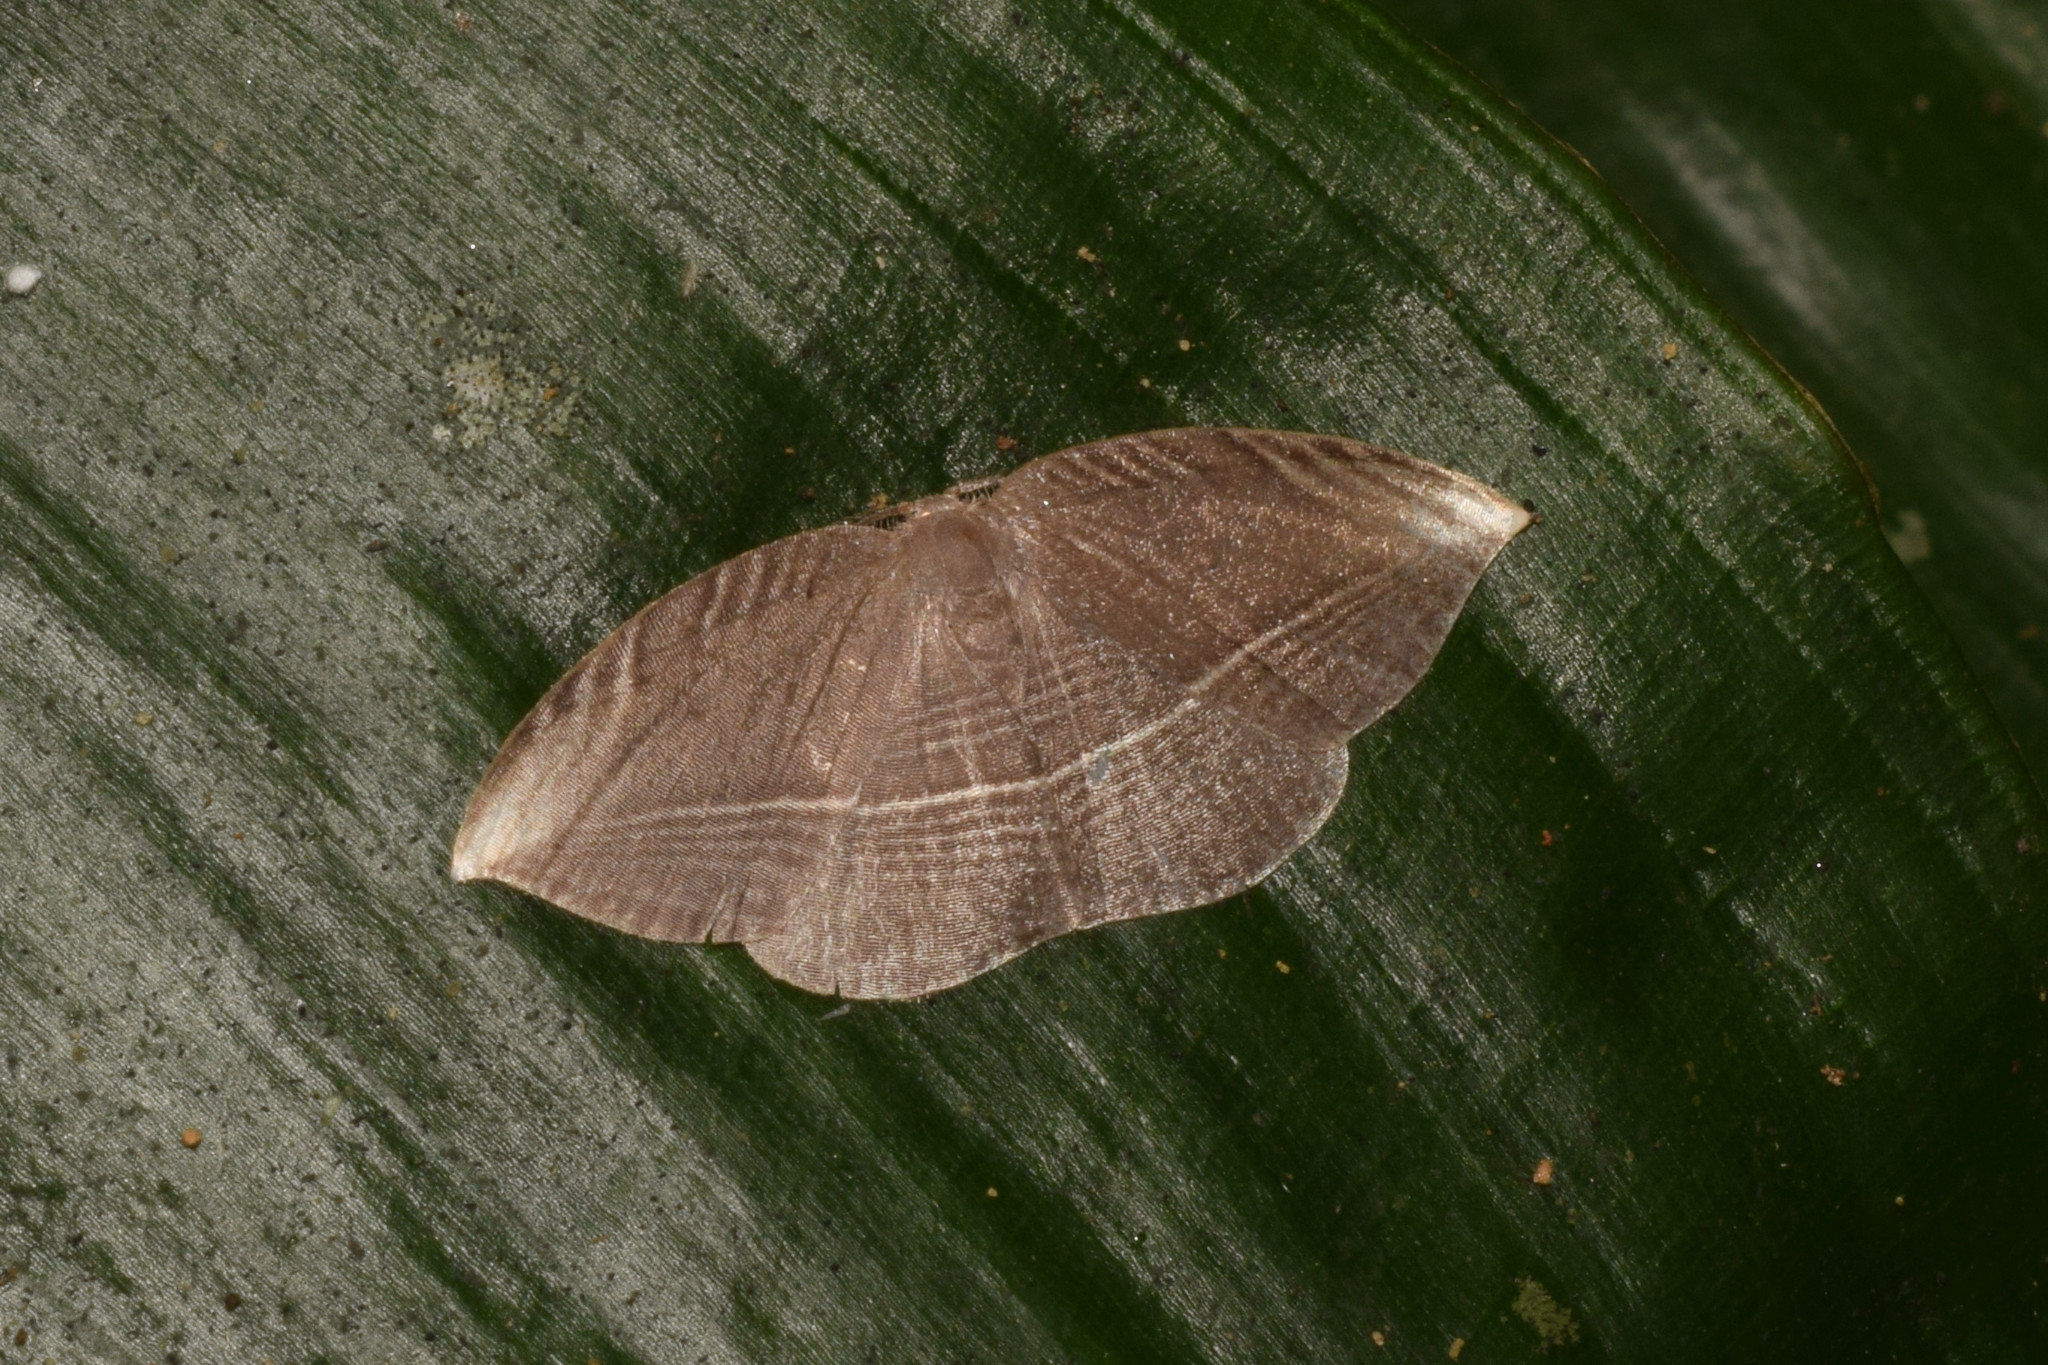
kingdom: Animalia
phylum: Arthropoda
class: Insecta
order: Lepidoptera
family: Drepanidae
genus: Microblepsis
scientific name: Microblepsis leucosticta
